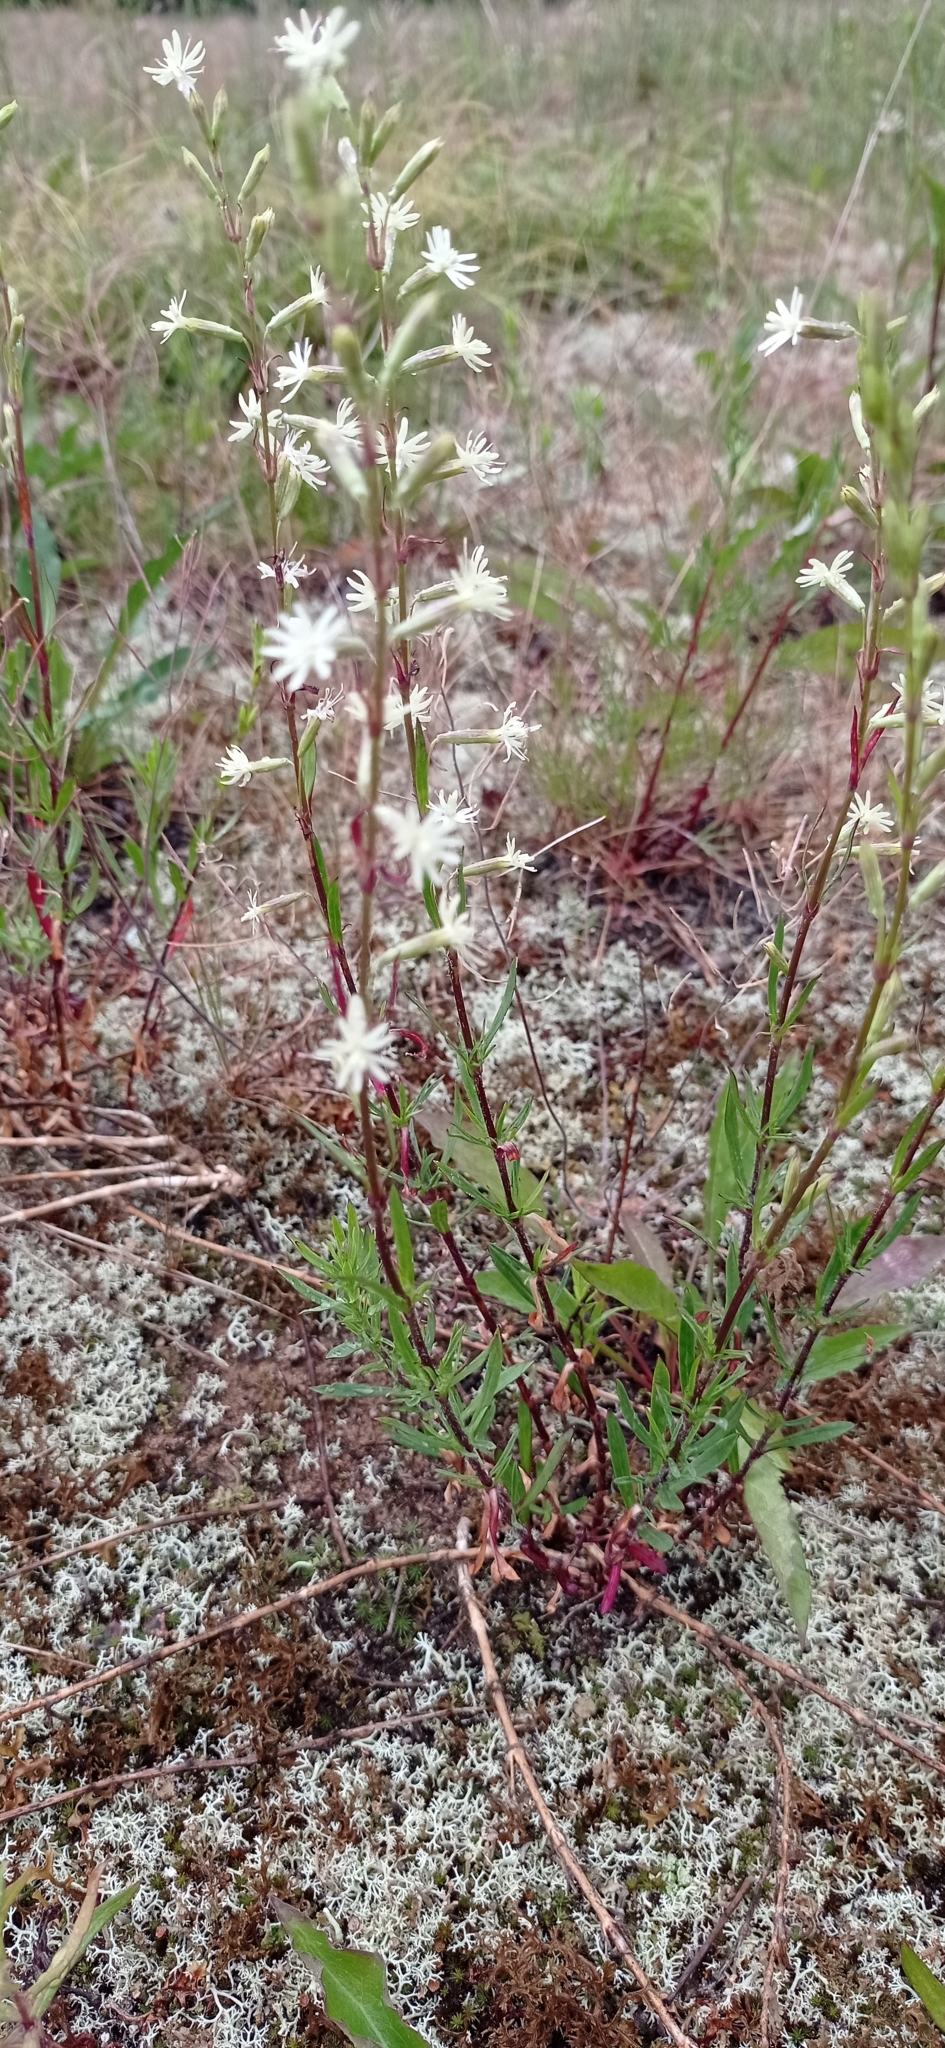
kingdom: Plantae
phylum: Tracheophyta
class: Magnoliopsida
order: Caryophyllales
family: Caryophyllaceae
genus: Silene
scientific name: Silene tatarica
